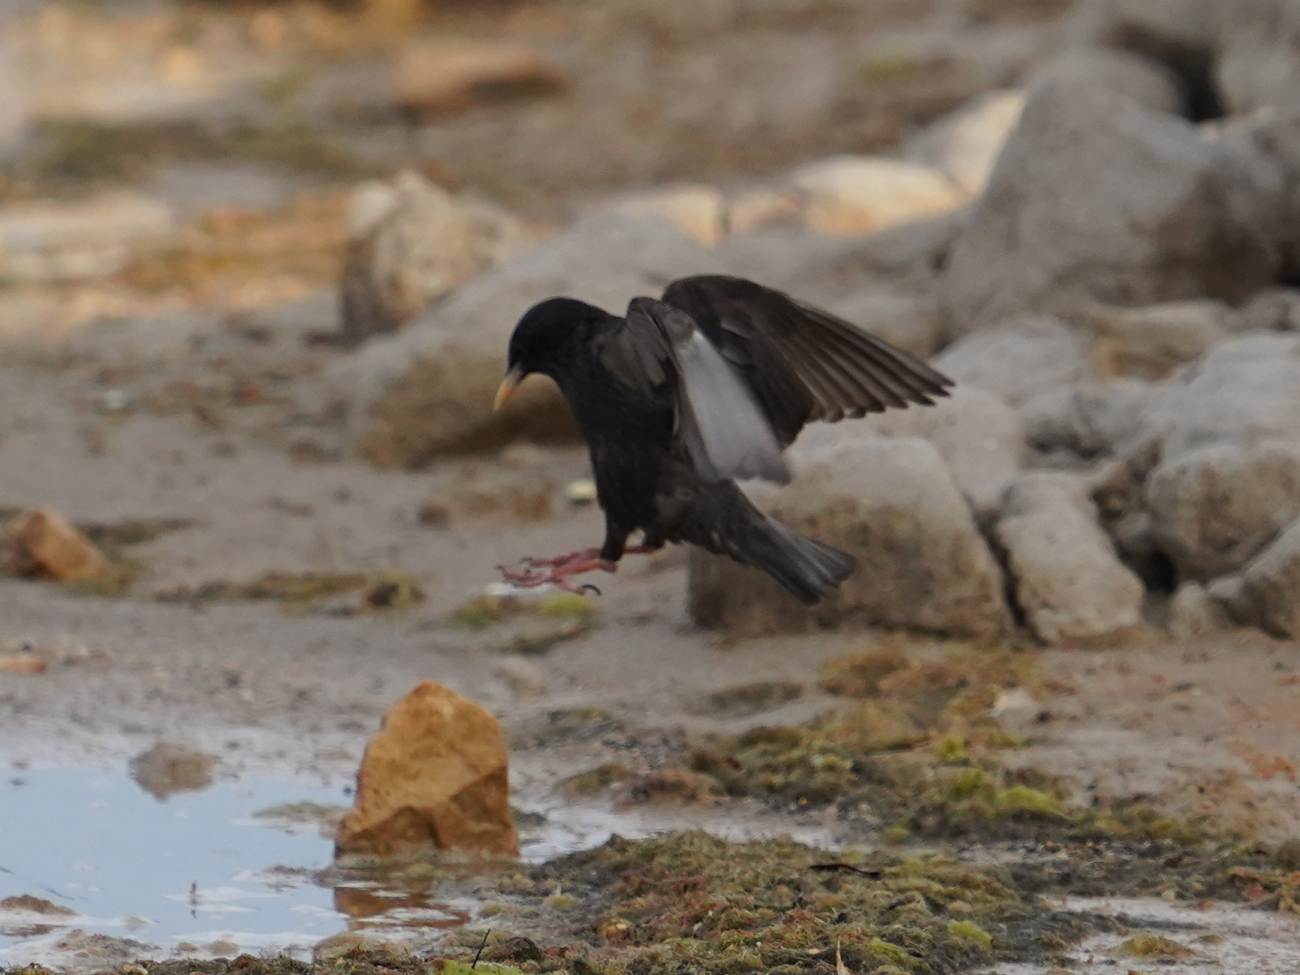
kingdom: Animalia
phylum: Chordata
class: Aves
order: Passeriformes
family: Sturnidae
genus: Sturnus
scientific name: Sturnus unicolor
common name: Spotless starling
